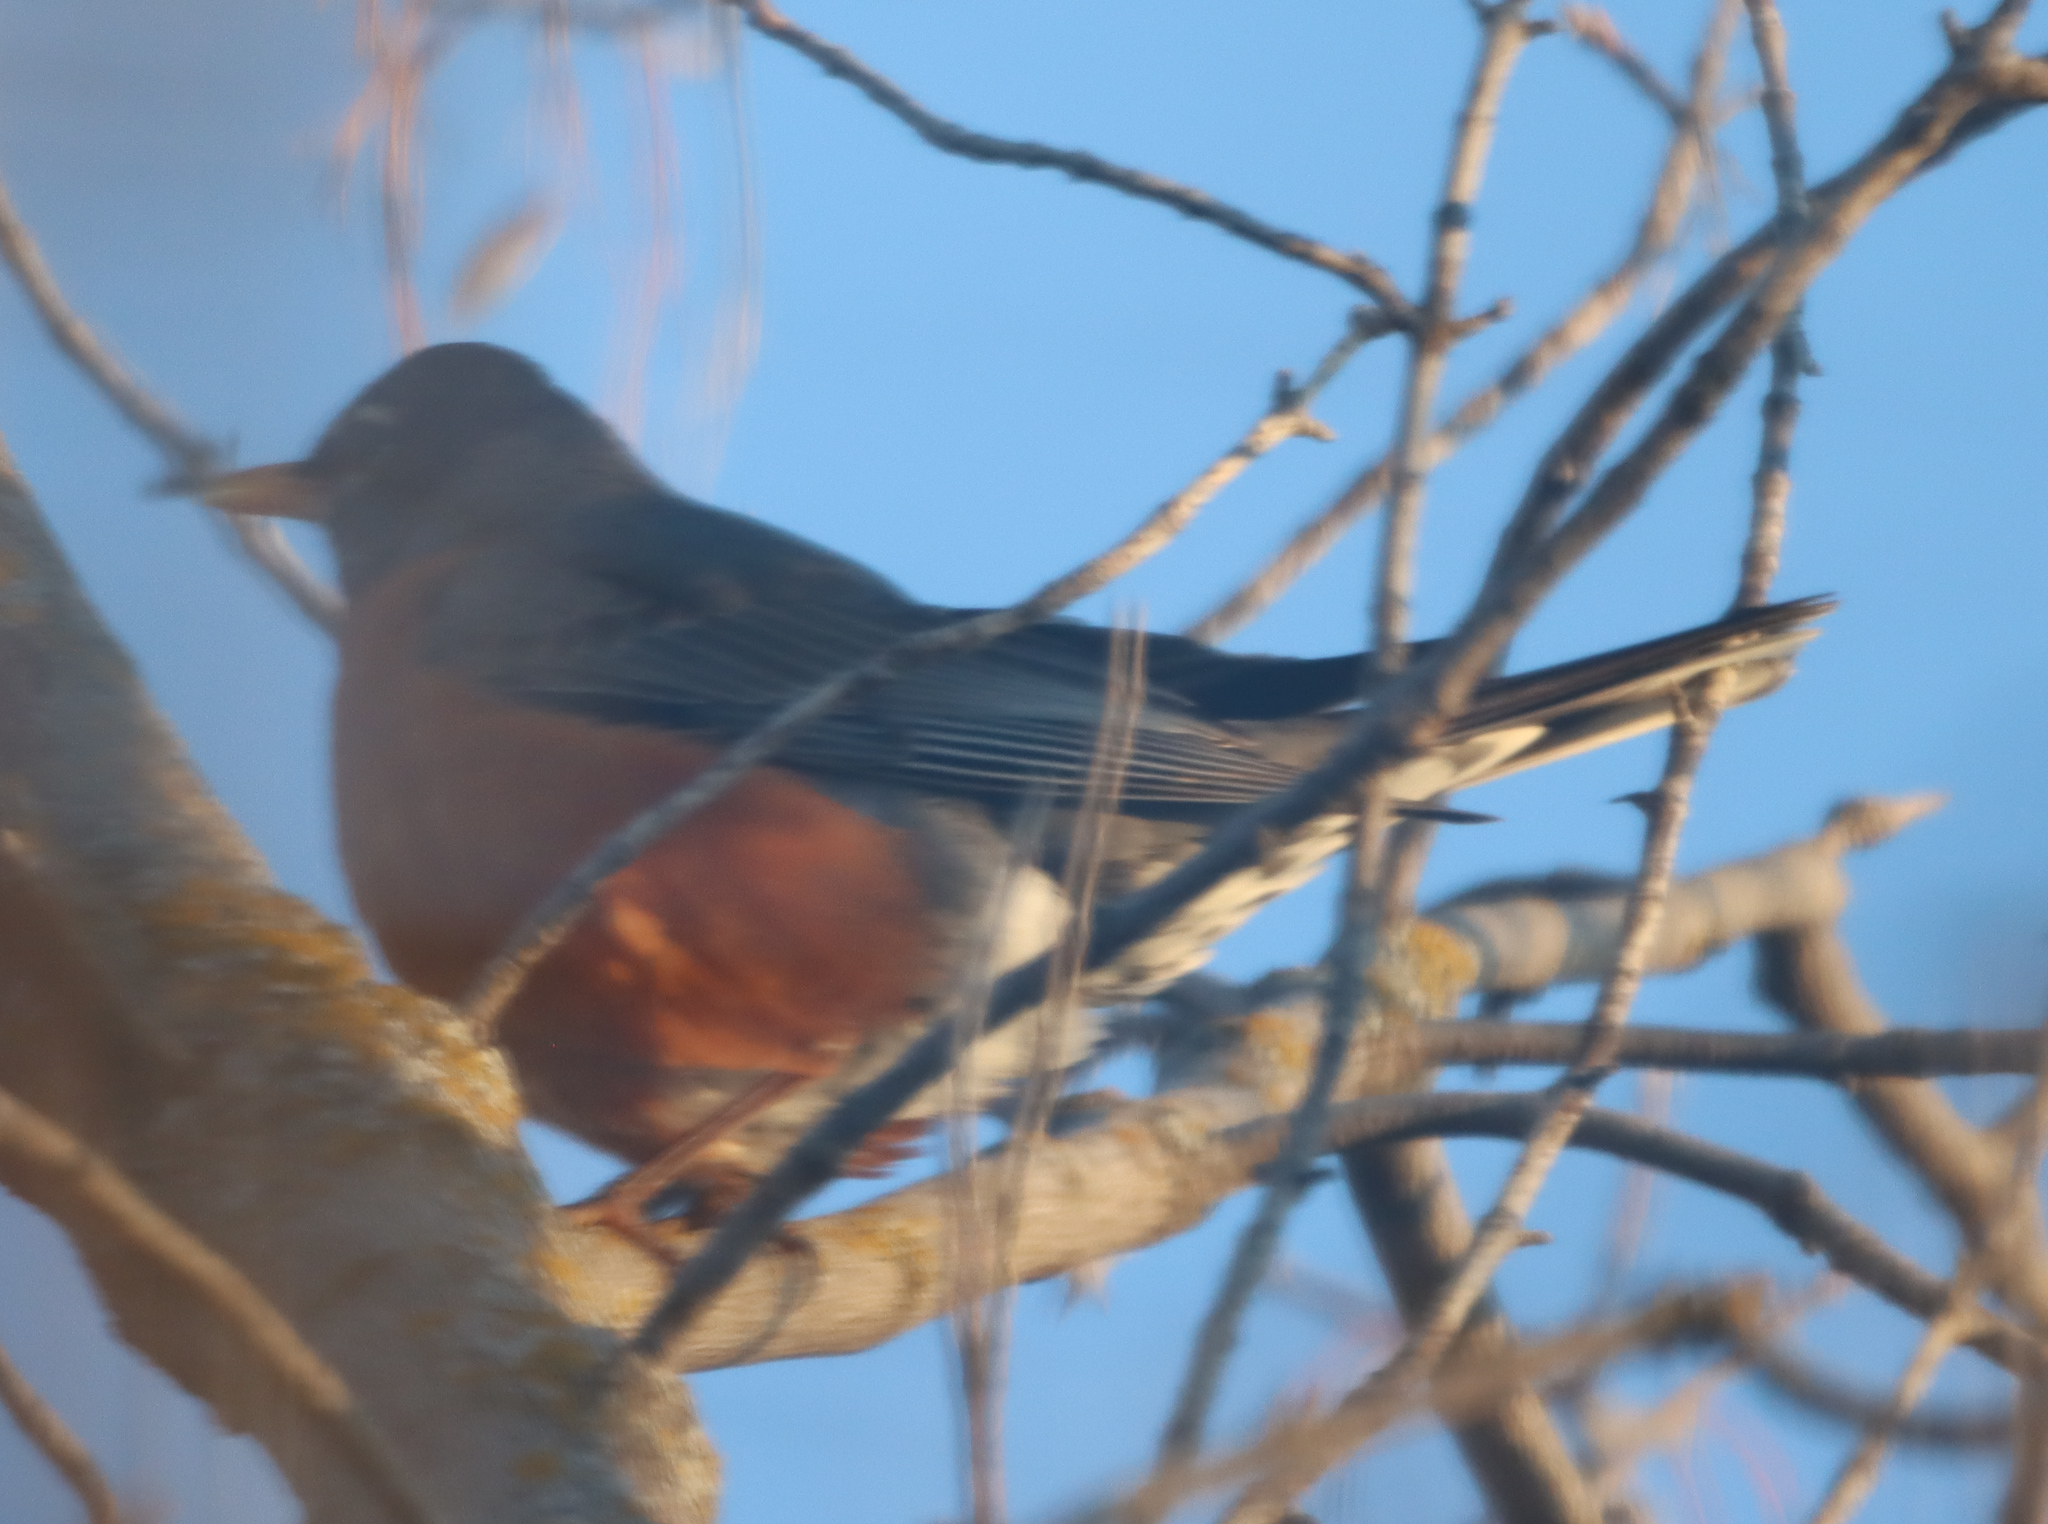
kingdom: Animalia
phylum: Chordata
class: Aves
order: Passeriformes
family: Turdidae
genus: Turdus
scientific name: Turdus migratorius
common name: American robin
